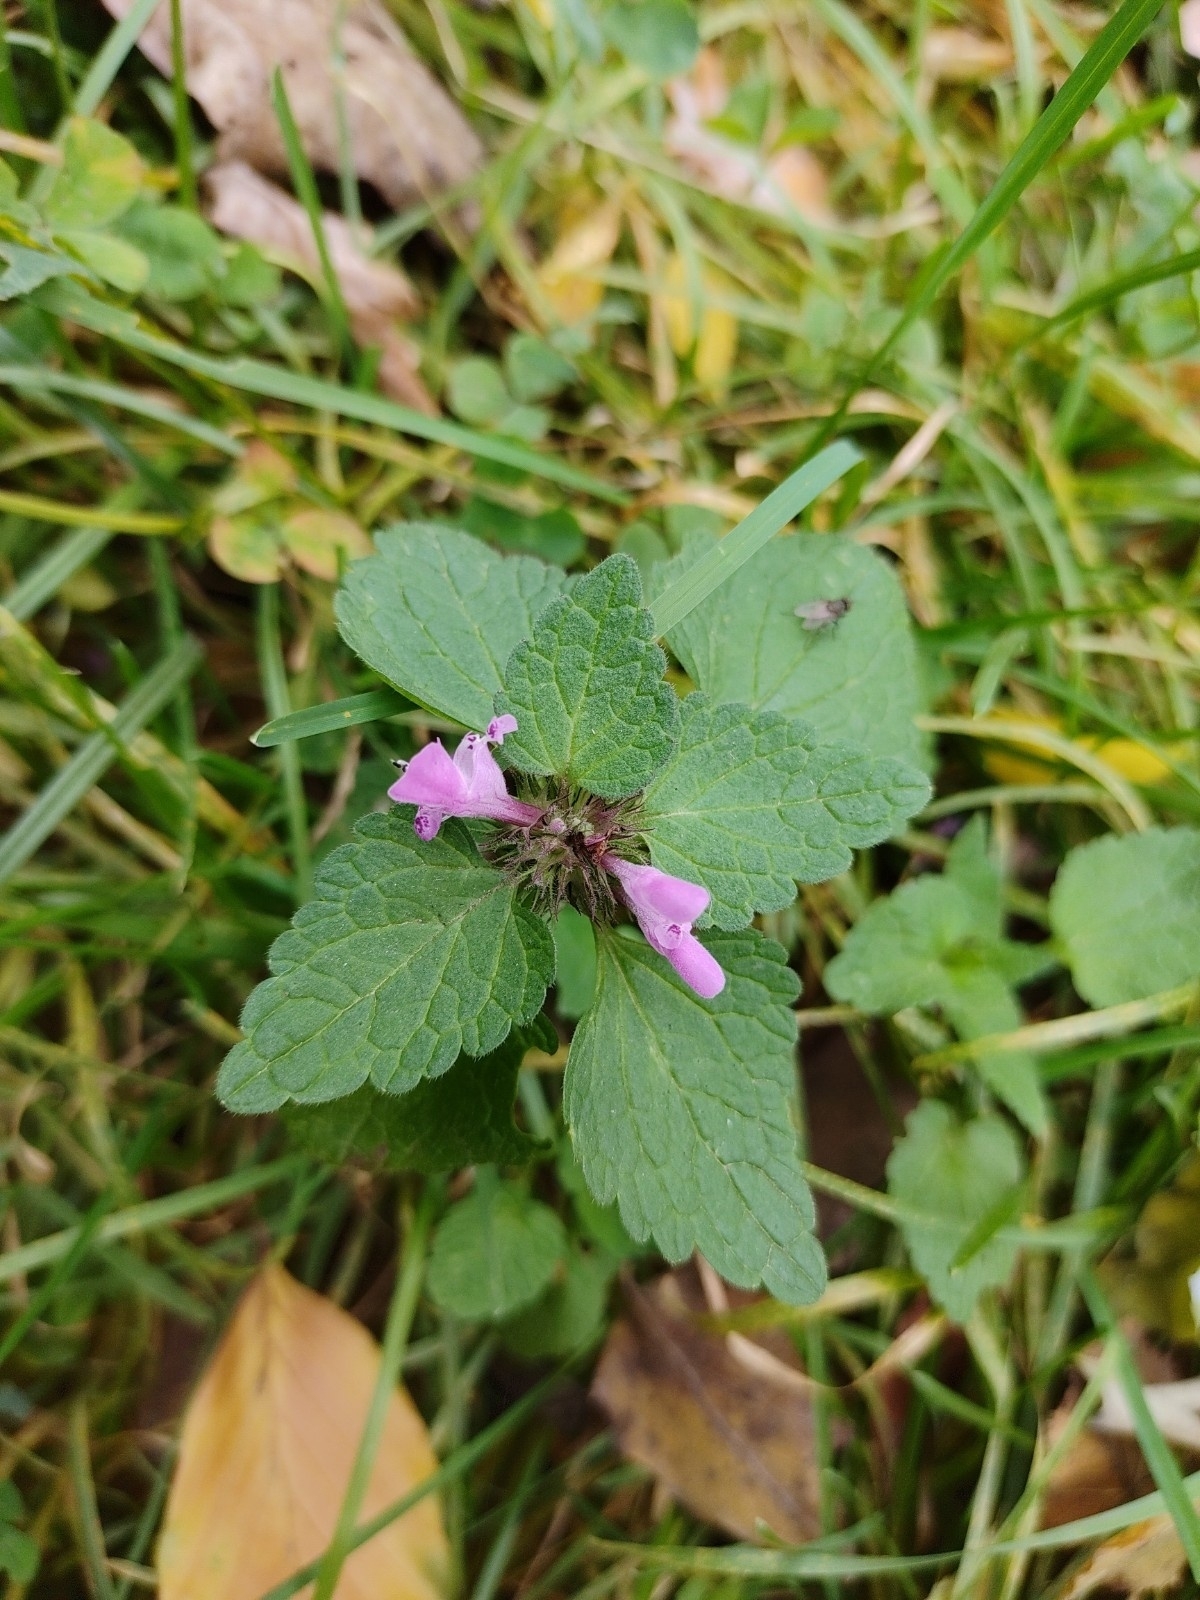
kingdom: Plantae
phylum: Tracheophyta
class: Magnoliopsida
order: Lamiales
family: Lamiaceae
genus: Lamium
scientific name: Lamium purpureum
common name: Red dead-nettle
